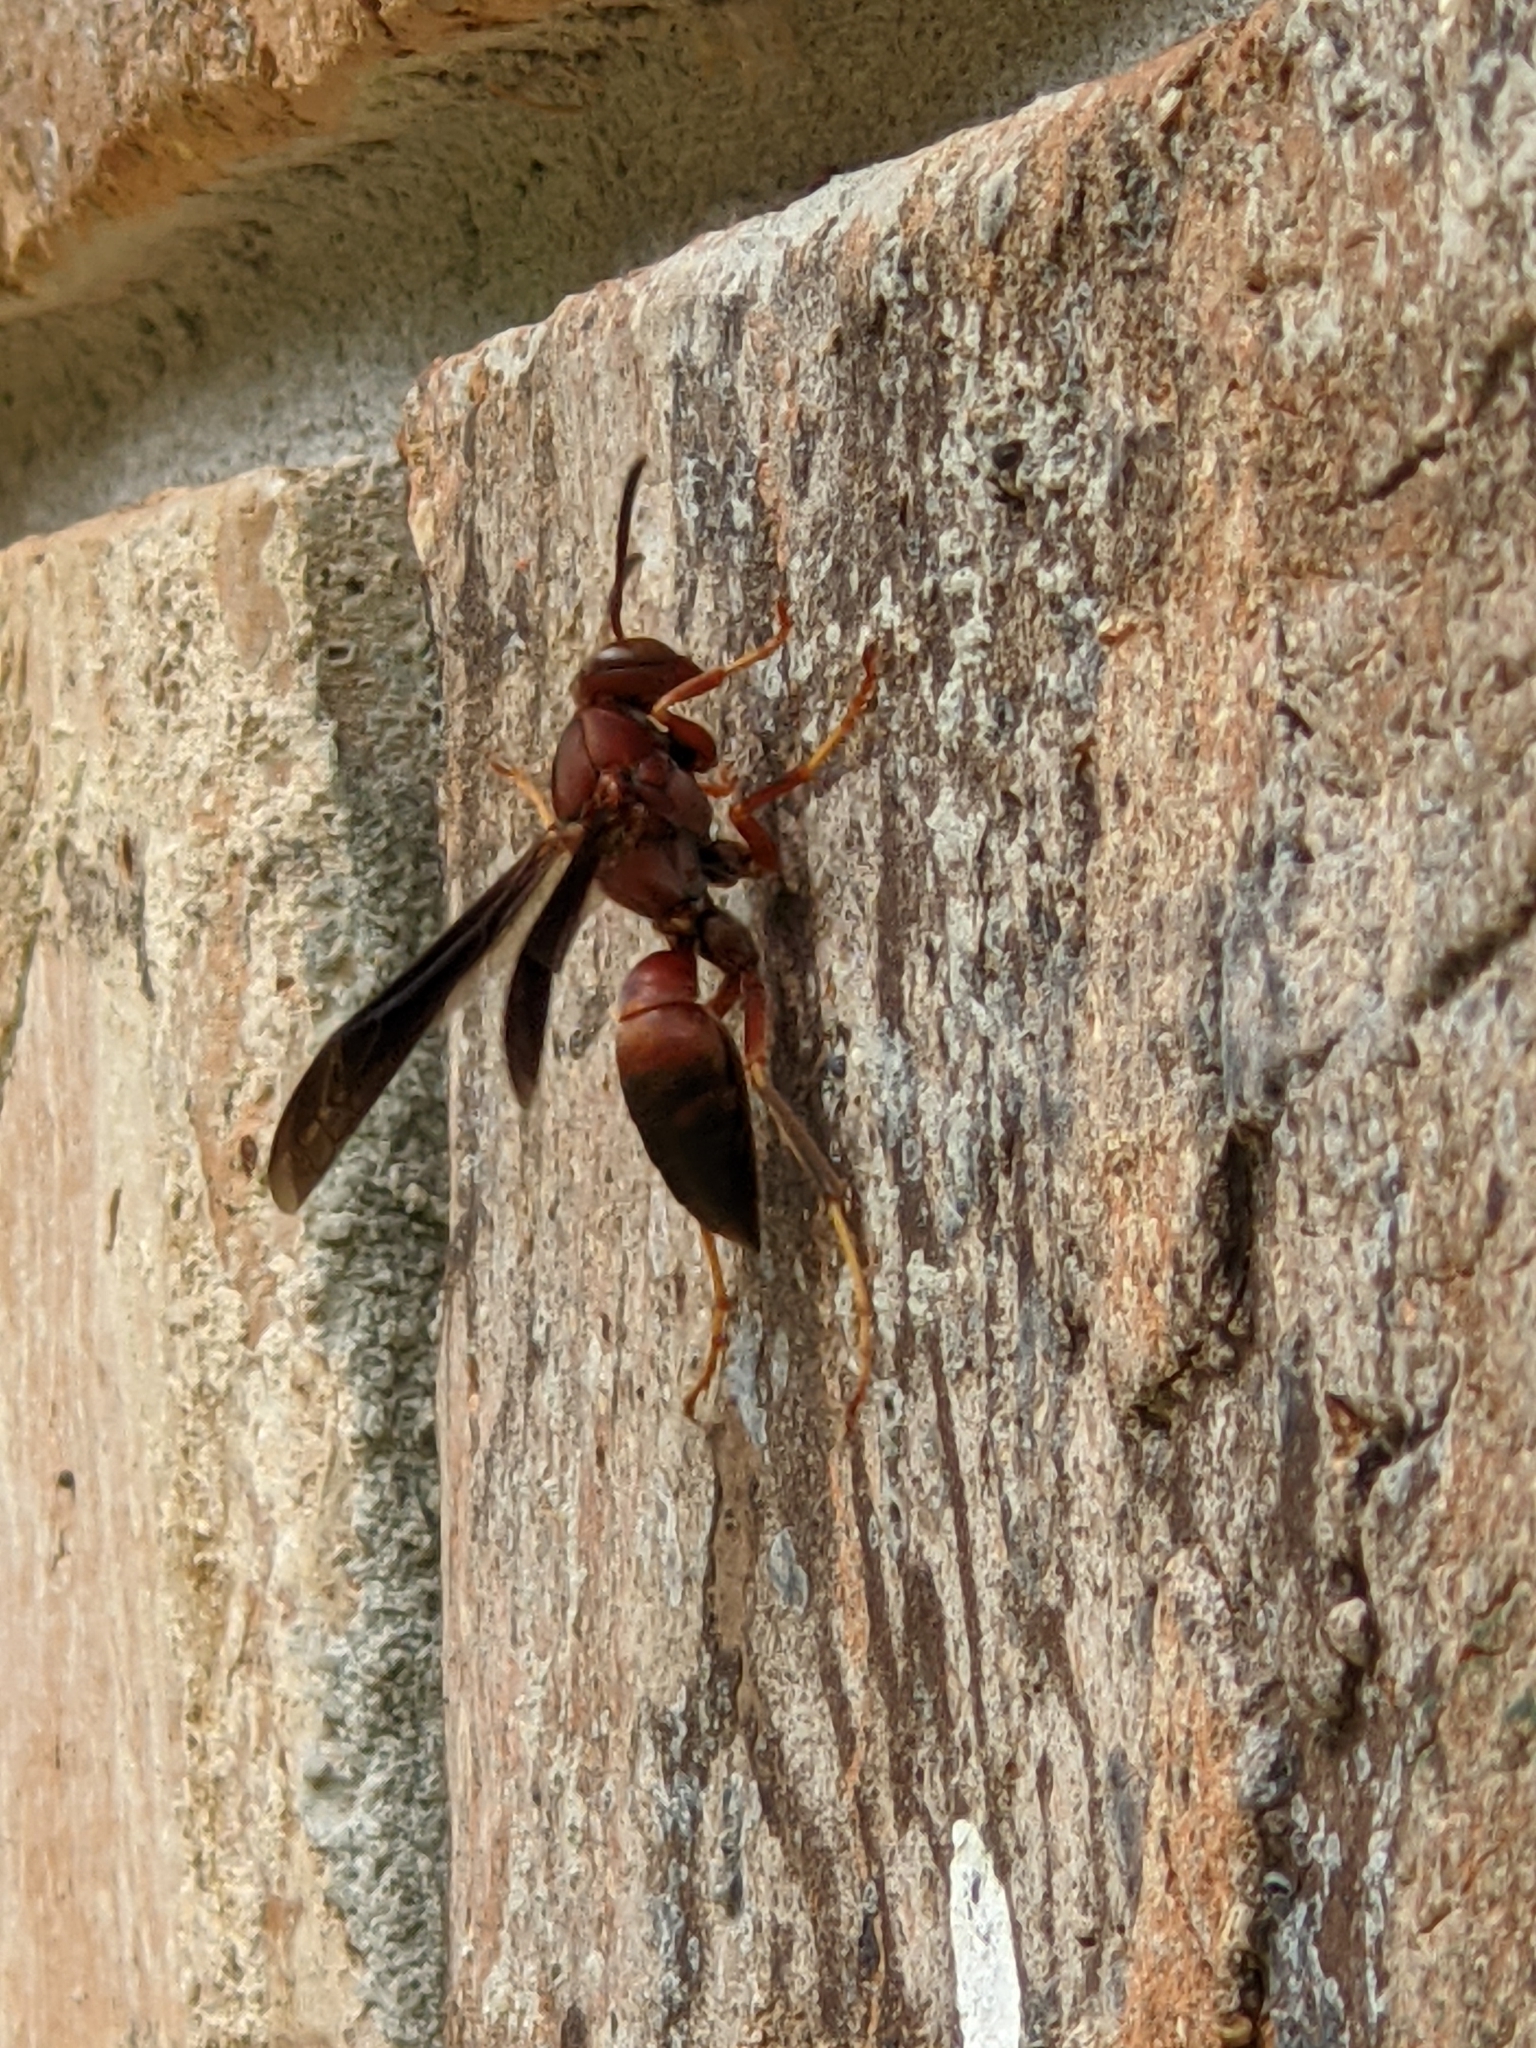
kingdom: Animalia
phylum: Arthropoda
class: Insecta
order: Hymenoptera
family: Eumenidae
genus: Polistes
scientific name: Polistes metricus
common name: Metric paper wasp
